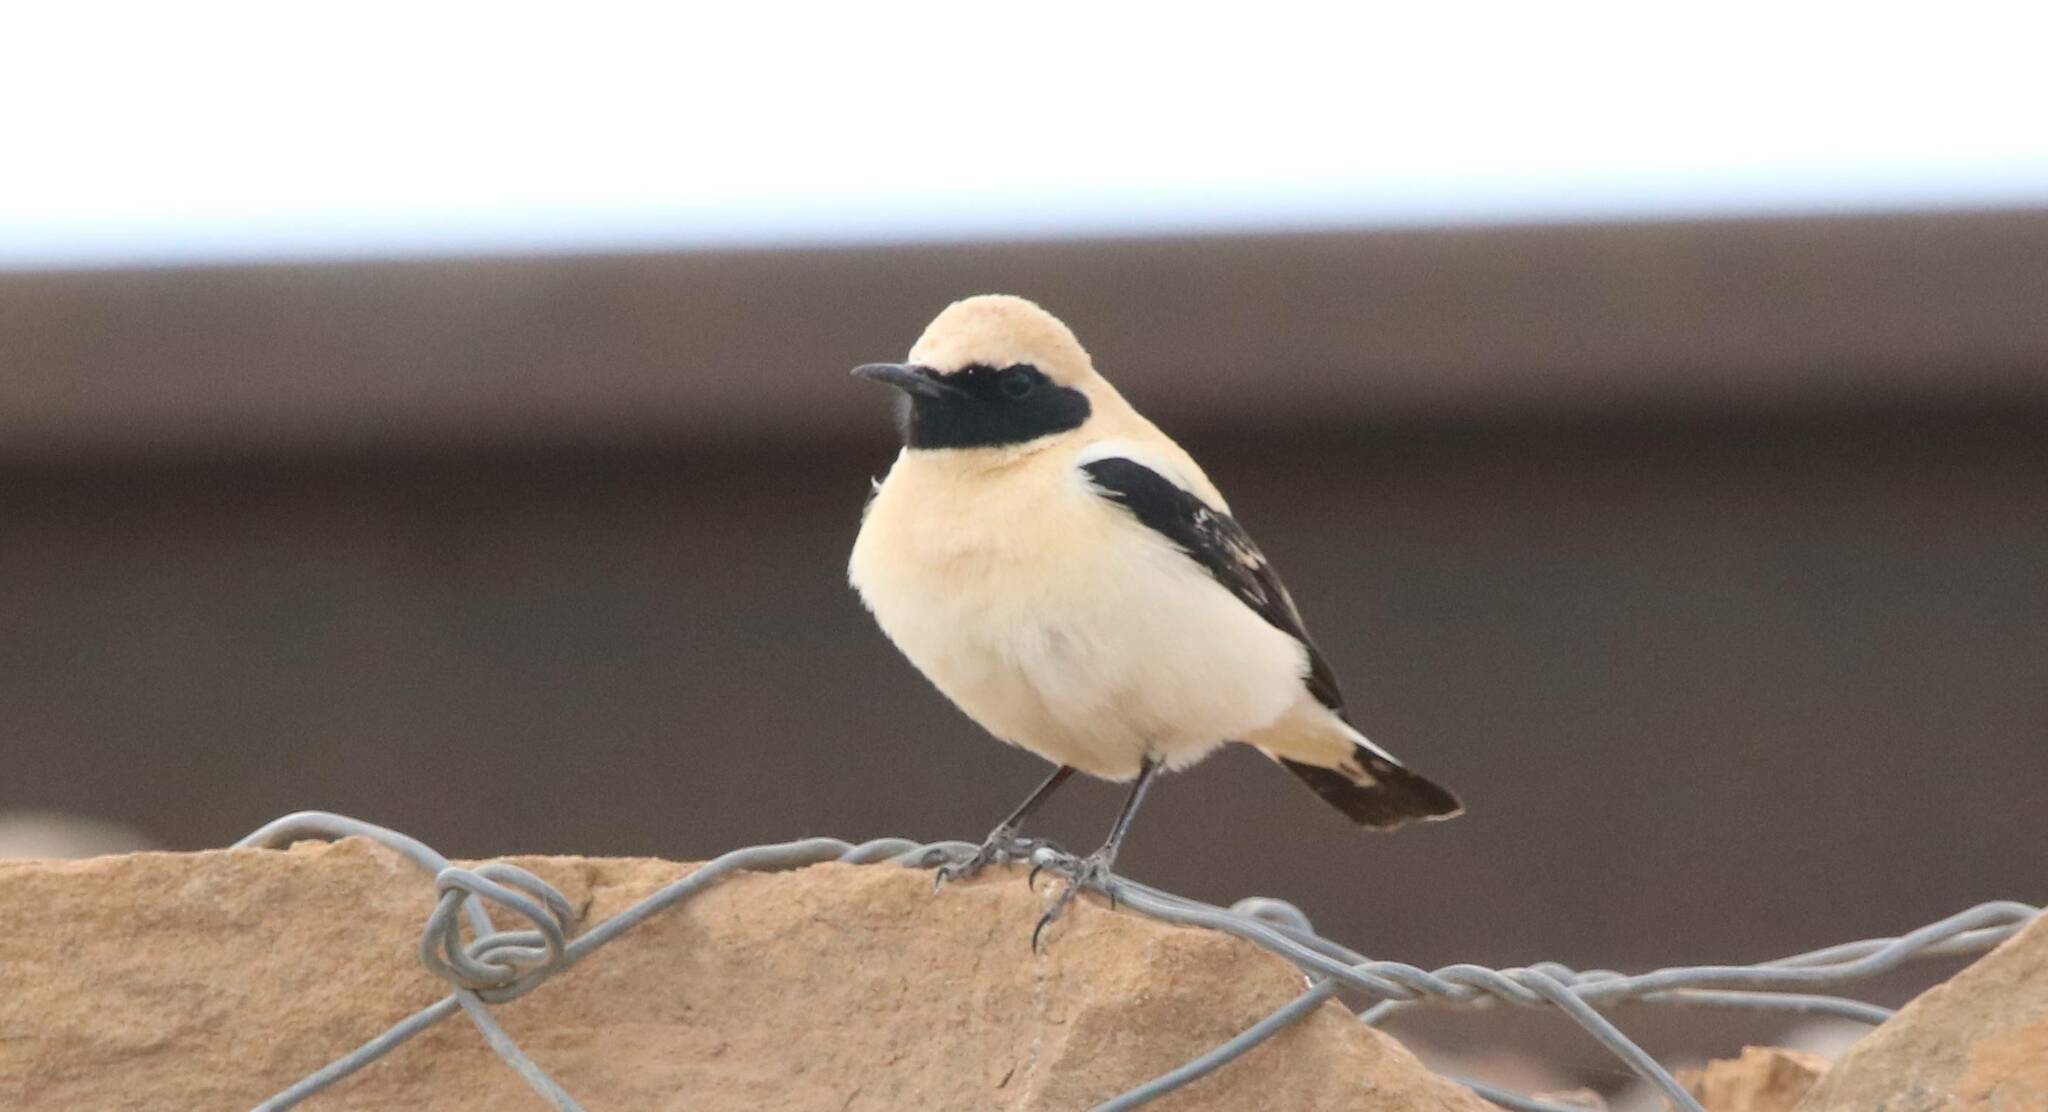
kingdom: Animalia
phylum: Chordata
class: Aves
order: Passeriformes
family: Muscicapidae
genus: Oenanthe
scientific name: Oenanthe hispanica
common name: Black-eared wheatear
